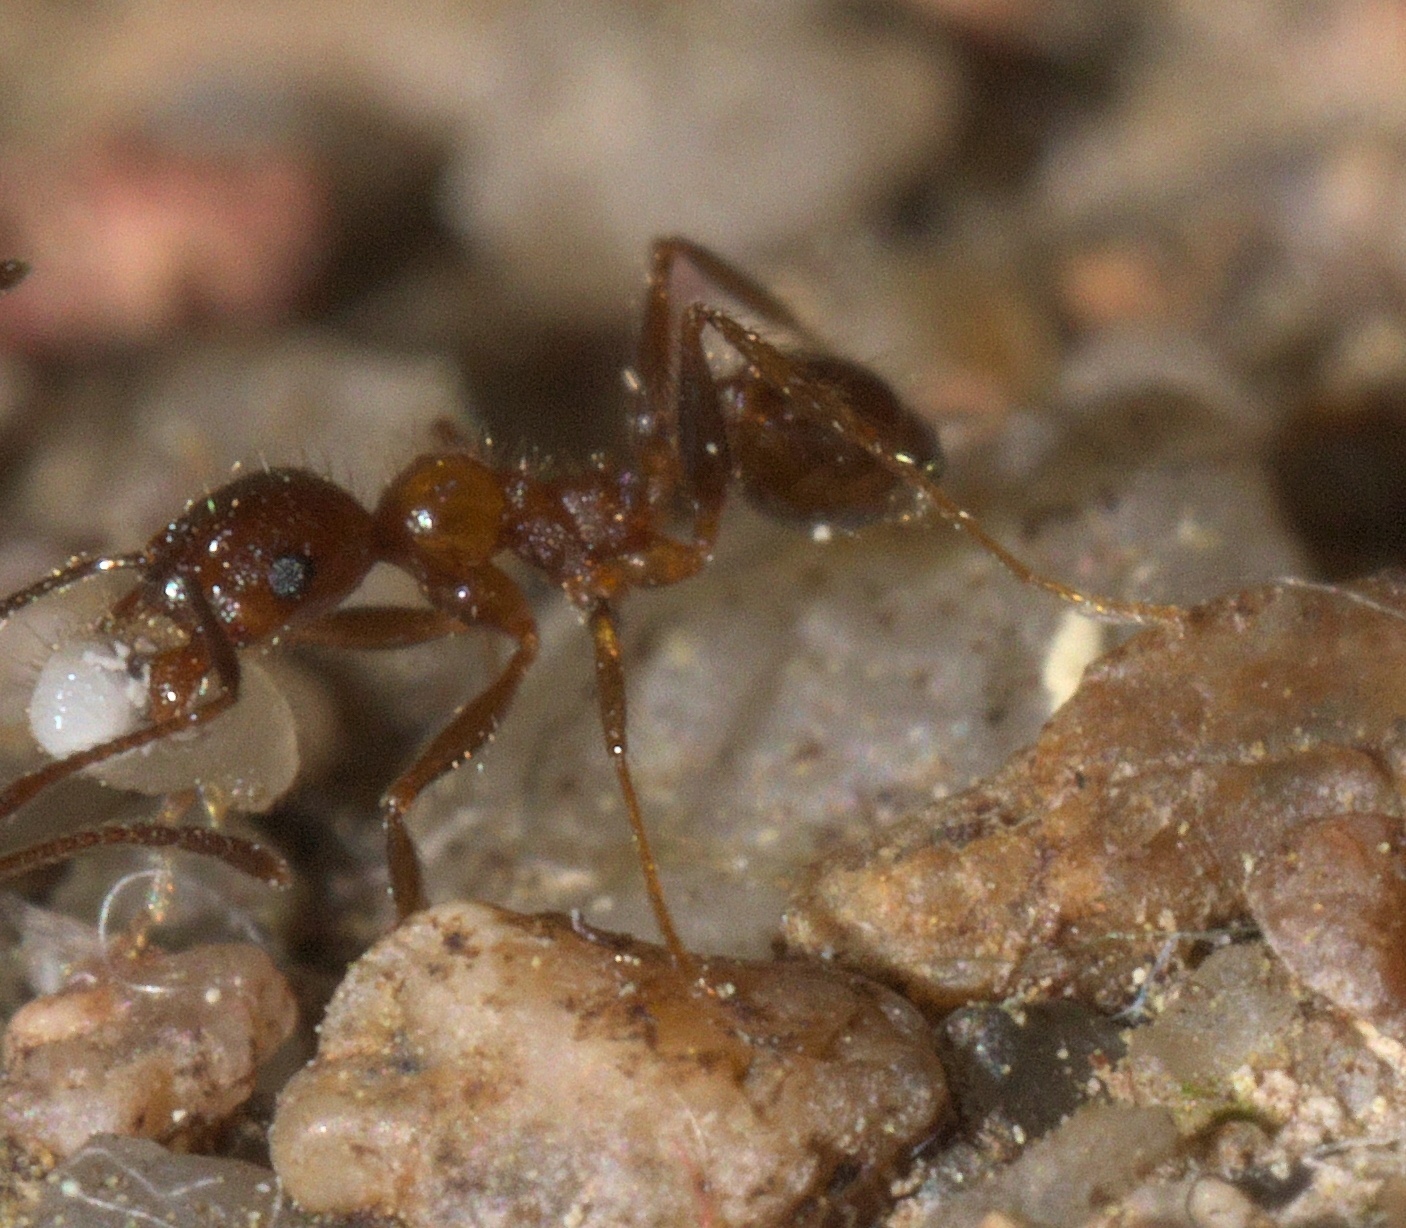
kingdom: Animalia
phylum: Arthropoda
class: Insecta
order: Hymenoptera
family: Formicidae
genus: Pheidole
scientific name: Pheidole dentata
